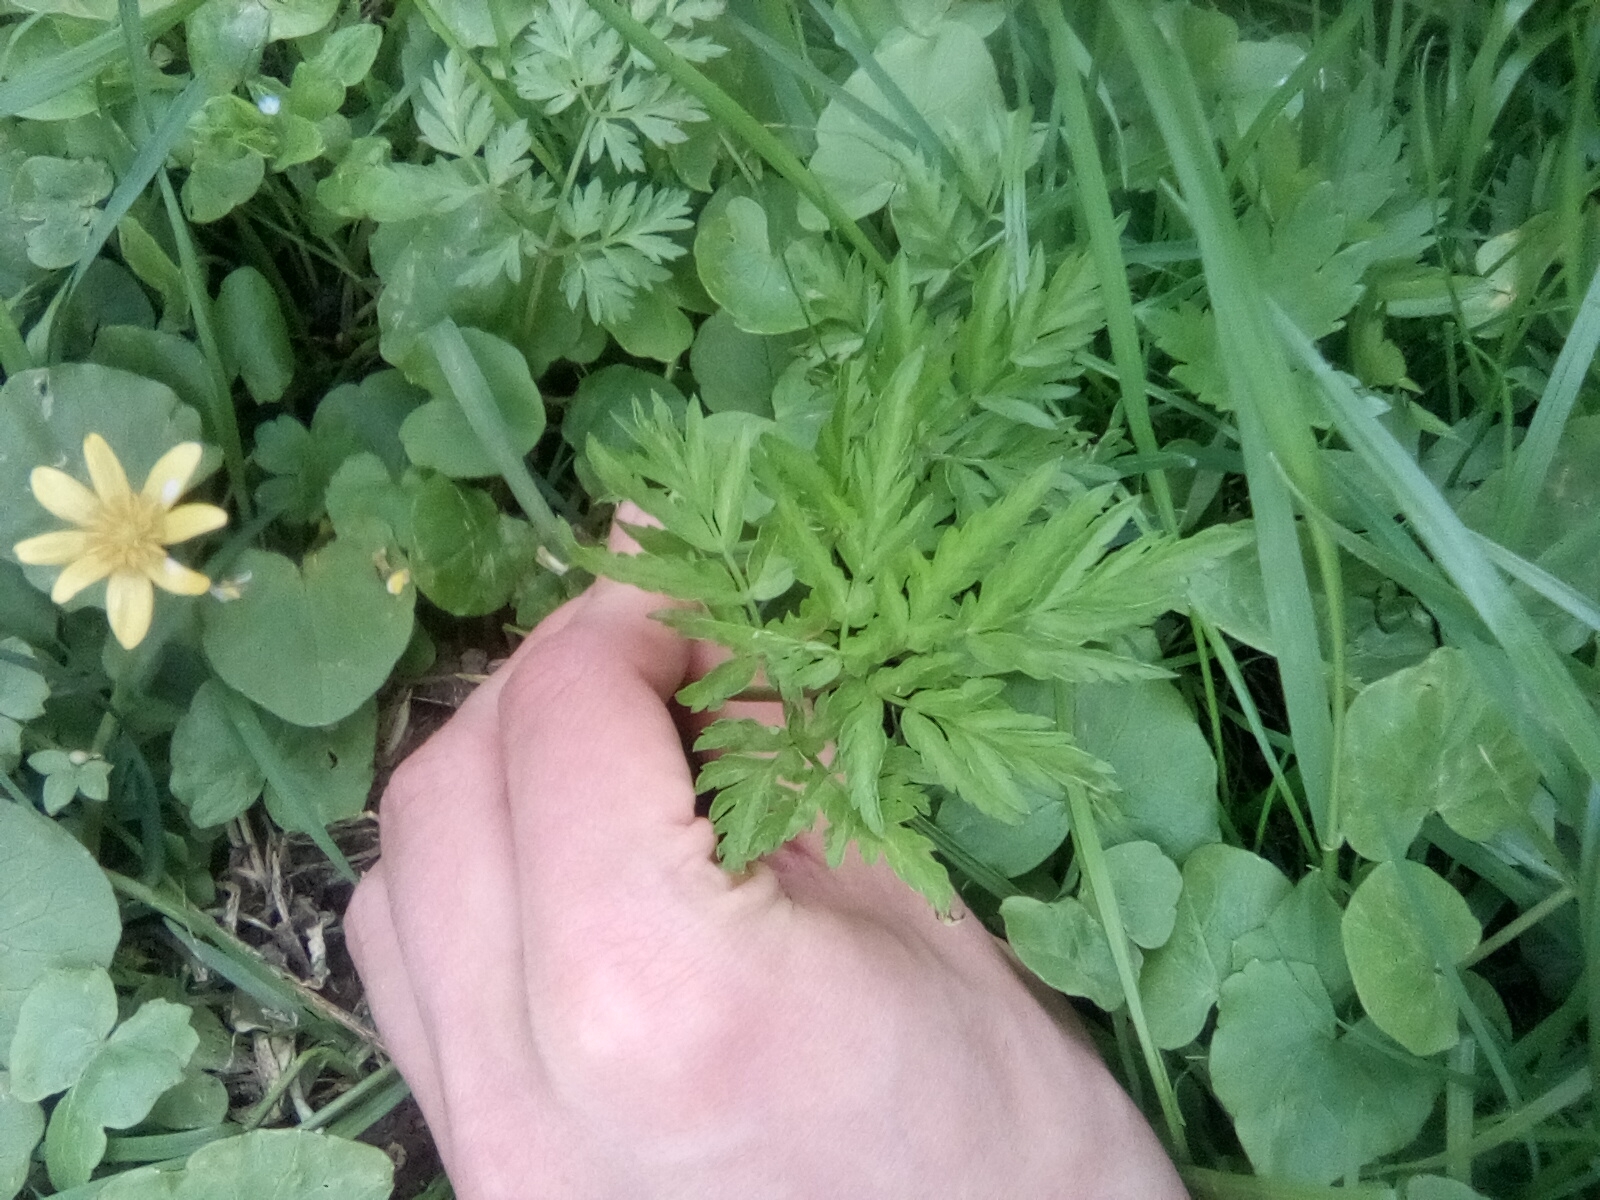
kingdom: Plantae
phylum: Tracheophyta
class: Magnoliopsida
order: Apiales
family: Apiaceae
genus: Anthriscus
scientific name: Anthriscus sylvestris
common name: Cow parsley
